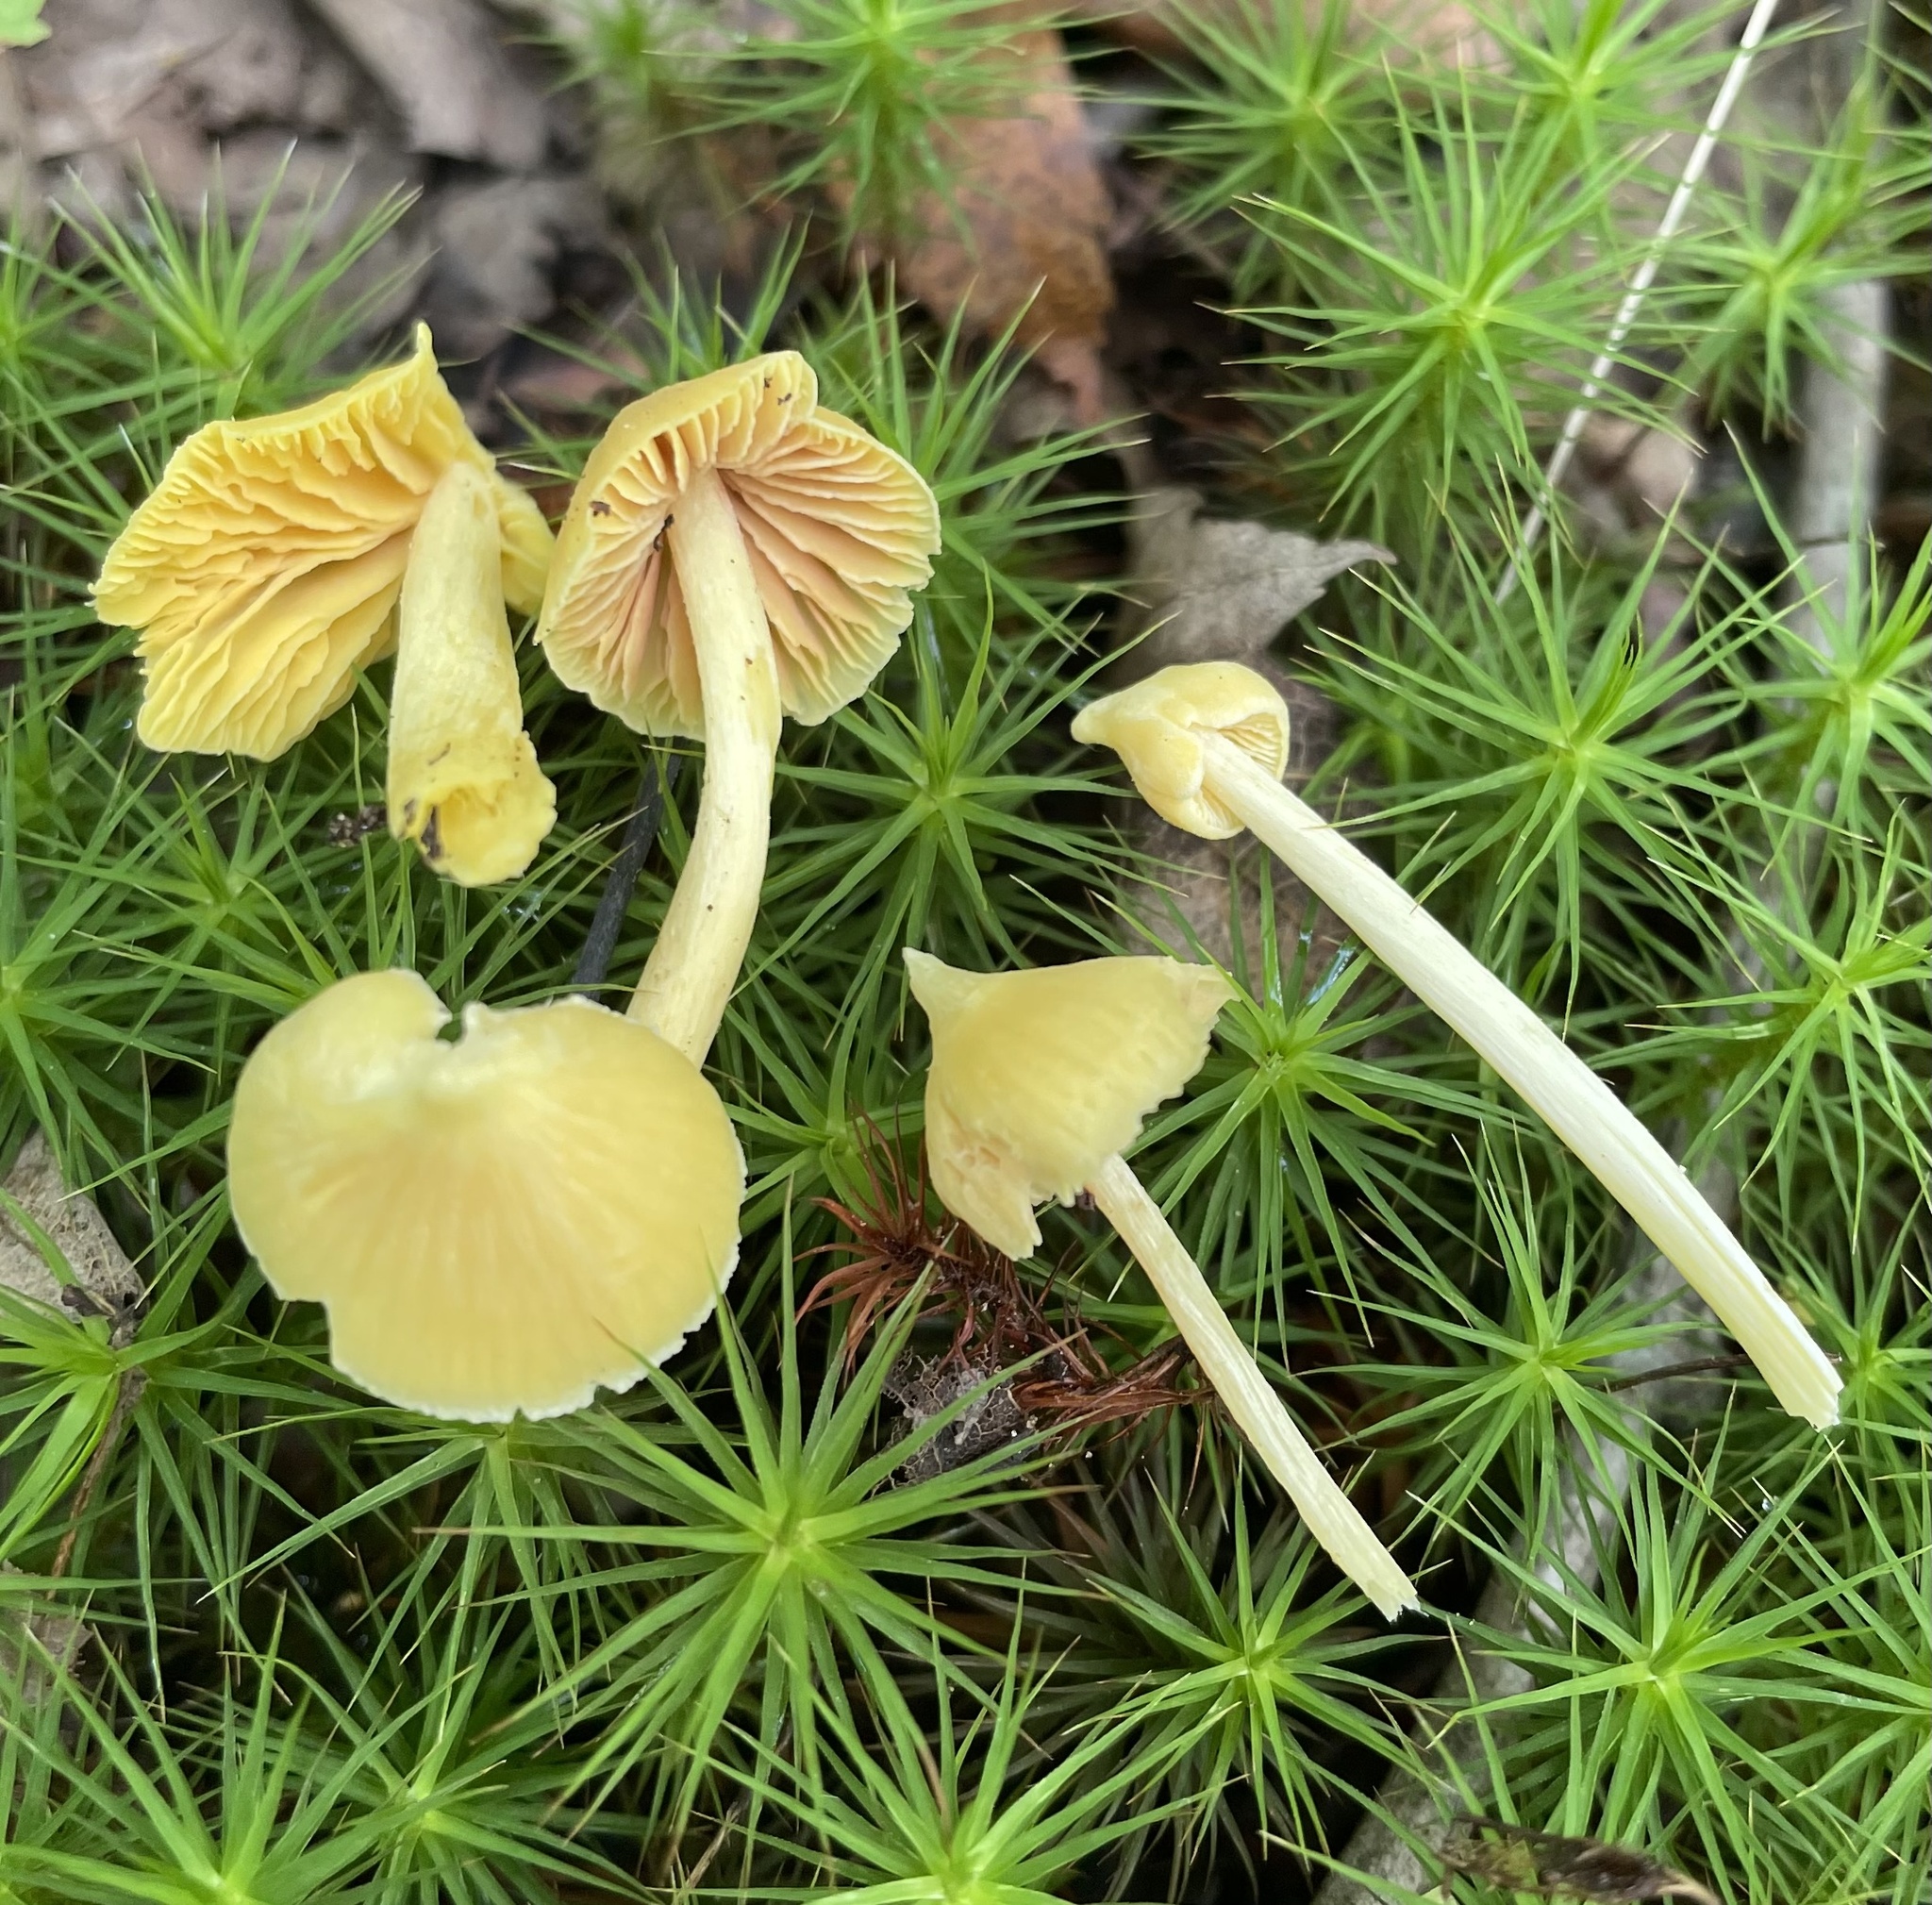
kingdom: Fungi
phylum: Basidiomycota
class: Agaricomycetes
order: Agaricales
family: Entolomataceae
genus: Entoloma
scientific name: Entoloma murrayi
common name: Yellow unicorn entoloma
